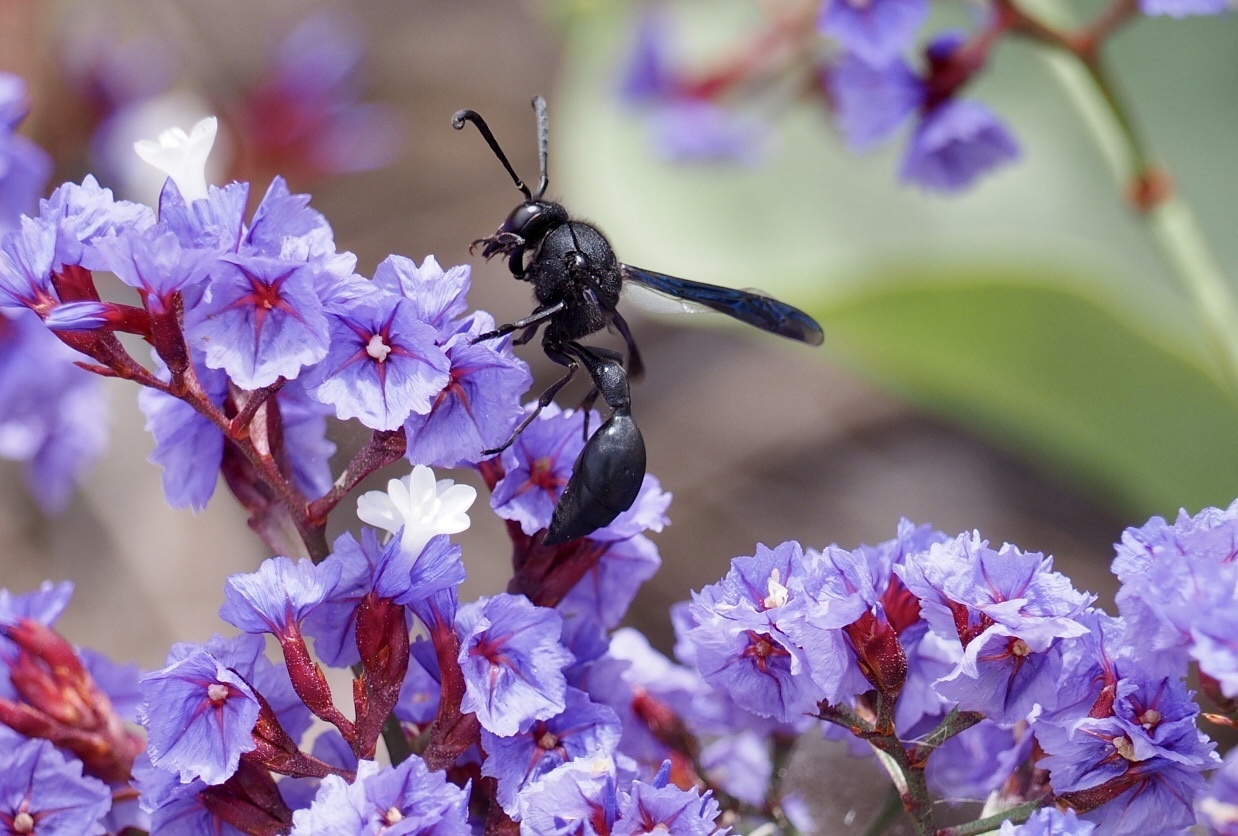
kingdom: Animalia
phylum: Arthropoda
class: Insecta
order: Hymenoptera
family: Eumenidae
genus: Katamenes
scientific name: Katamenes niger
